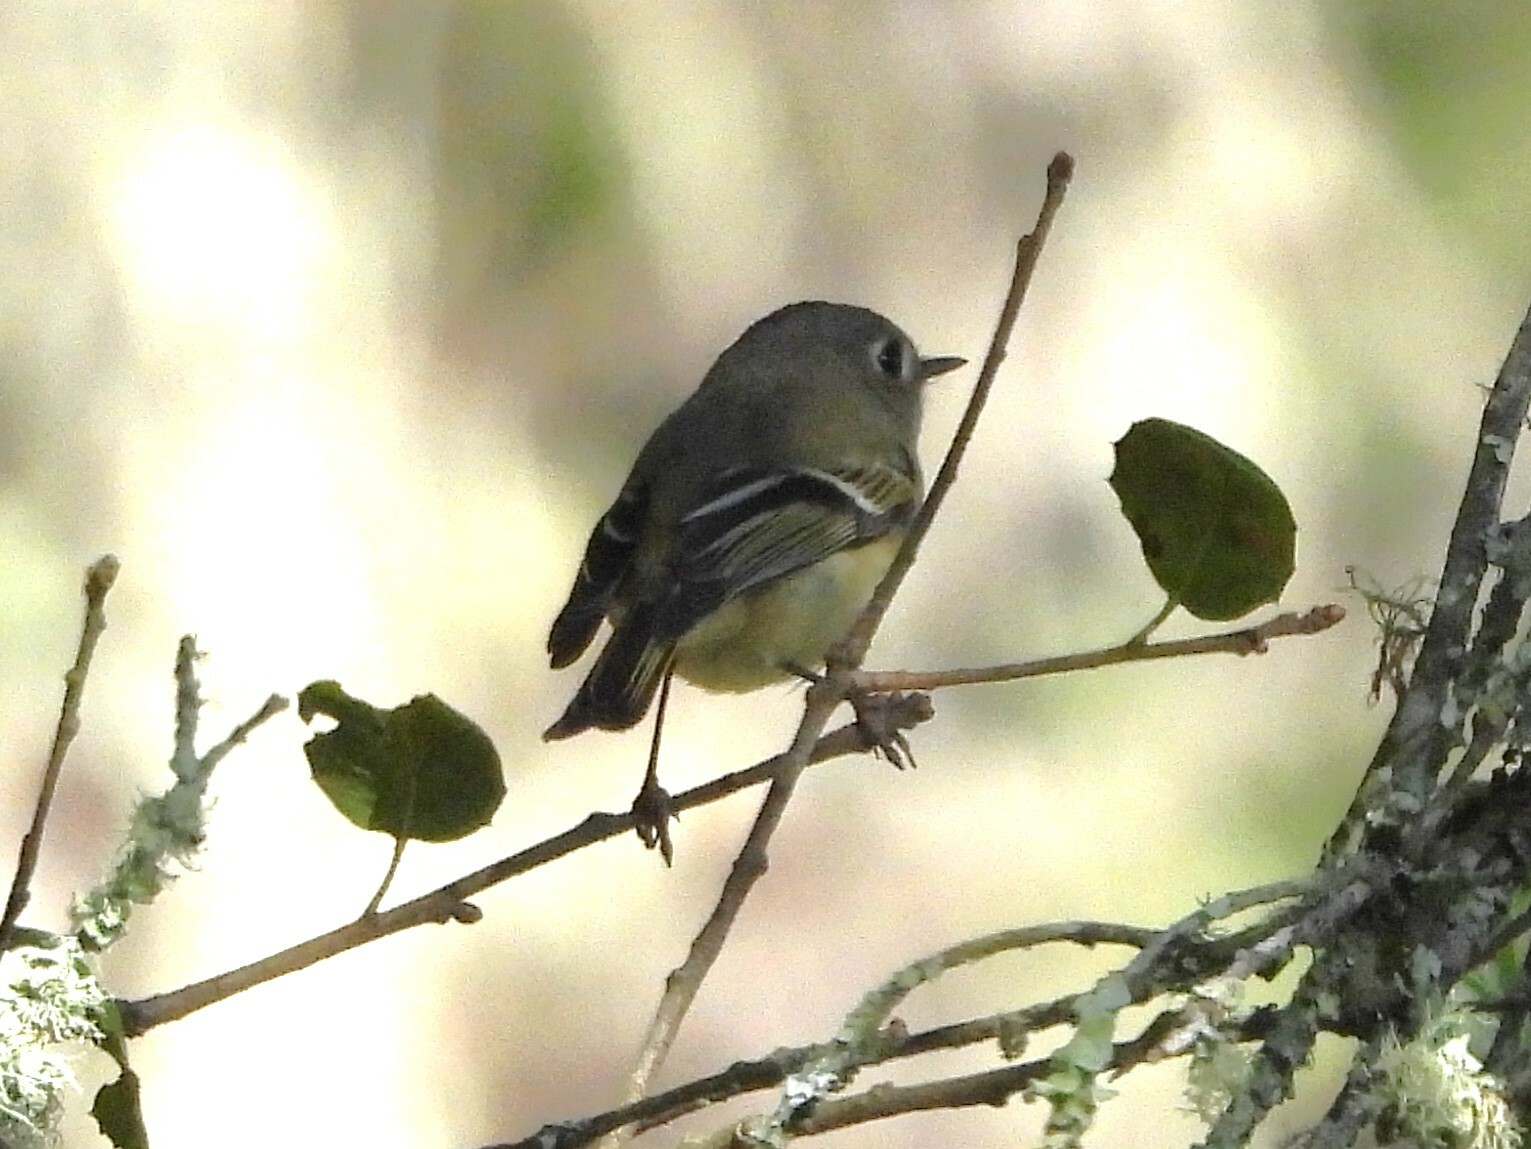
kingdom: Animalia
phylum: Chordata
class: Aves
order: Passeriformes
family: Regulidae
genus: Regulus
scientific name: Regulus calendula
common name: Ruby-crowned kinglet
